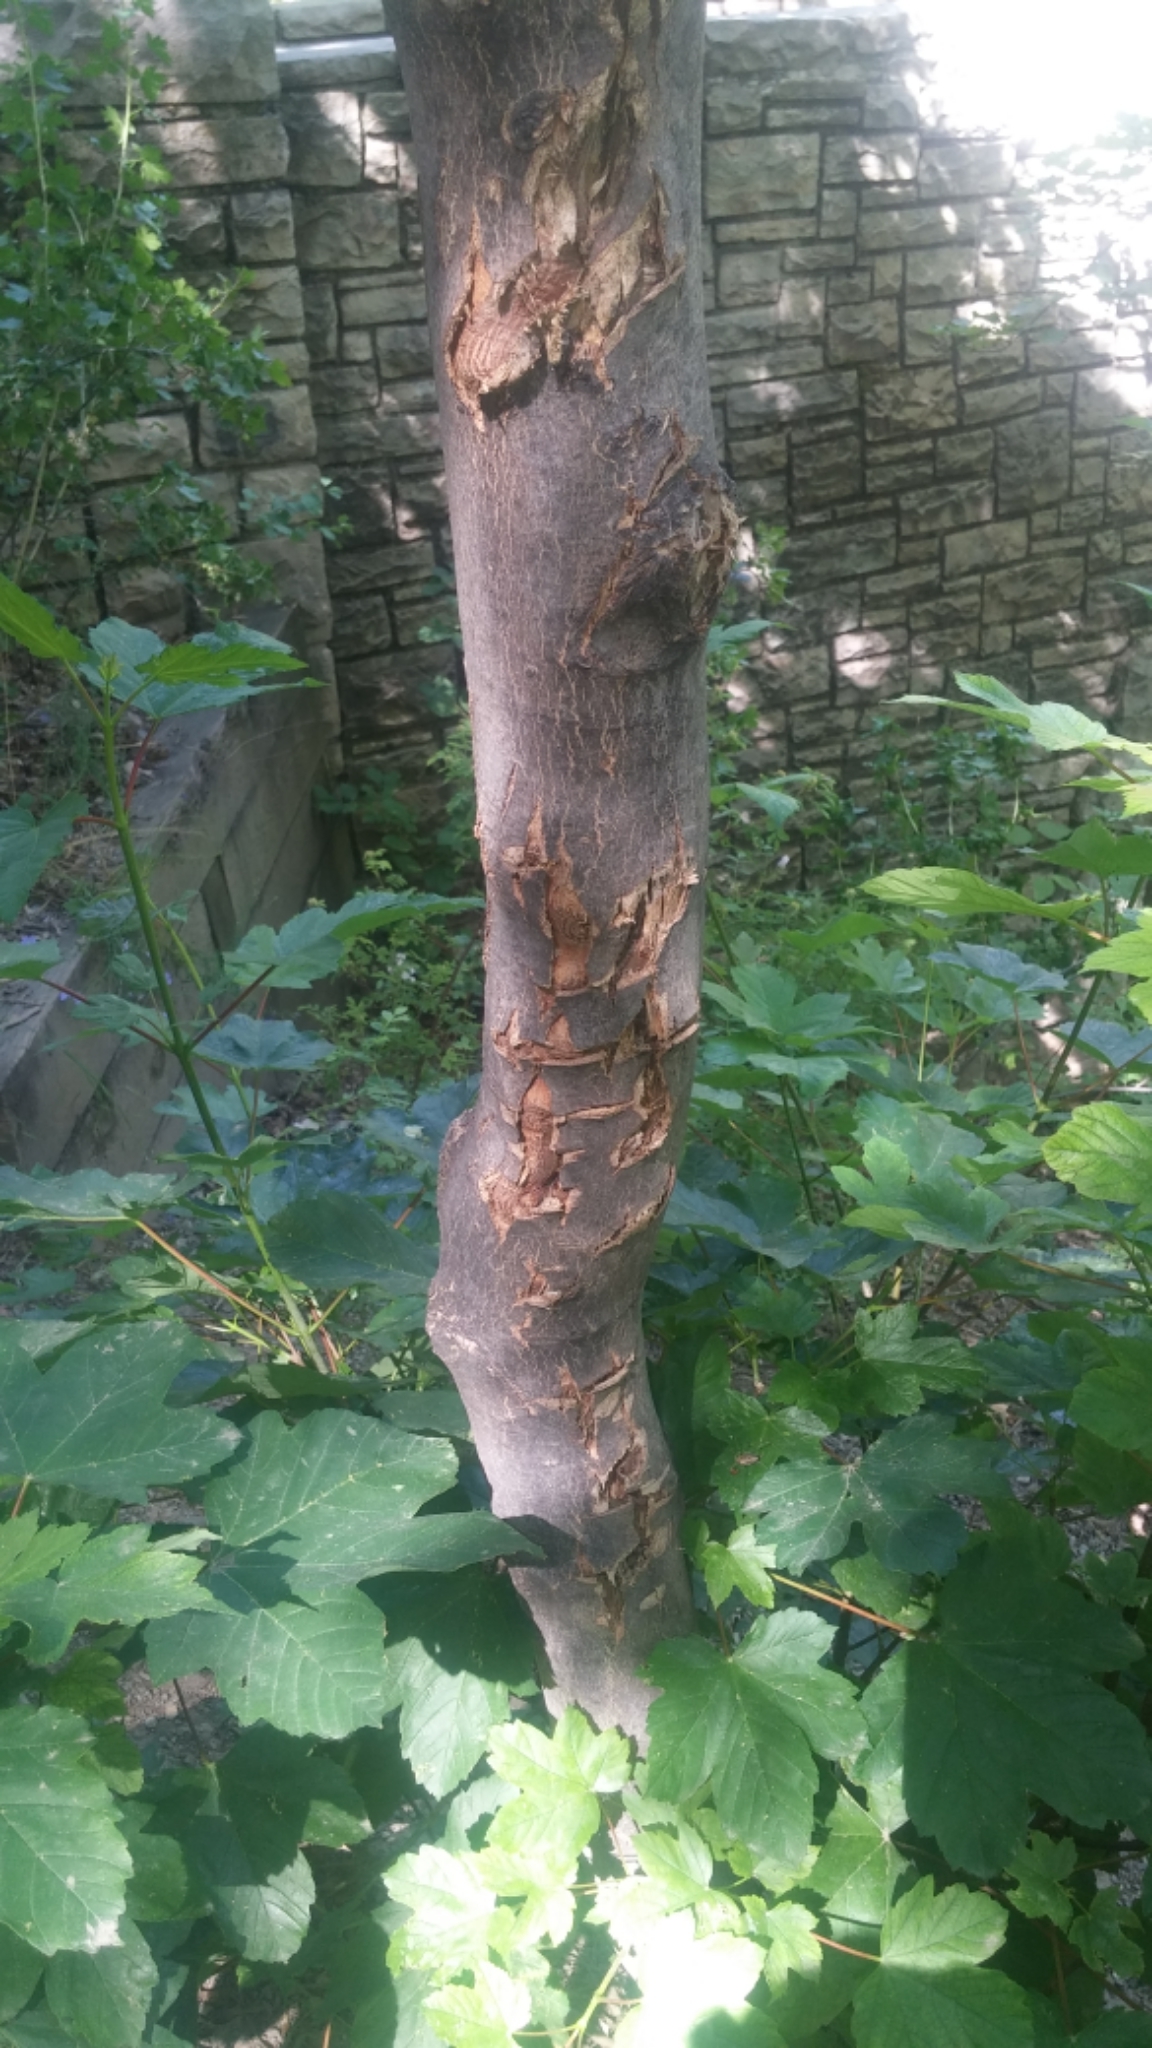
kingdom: Plantae
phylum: Tracheophyta
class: Magnoliopsida
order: Sapindales
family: Sapindaceae
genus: Acer
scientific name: Acer pseudoplatanus
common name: Sycamore
